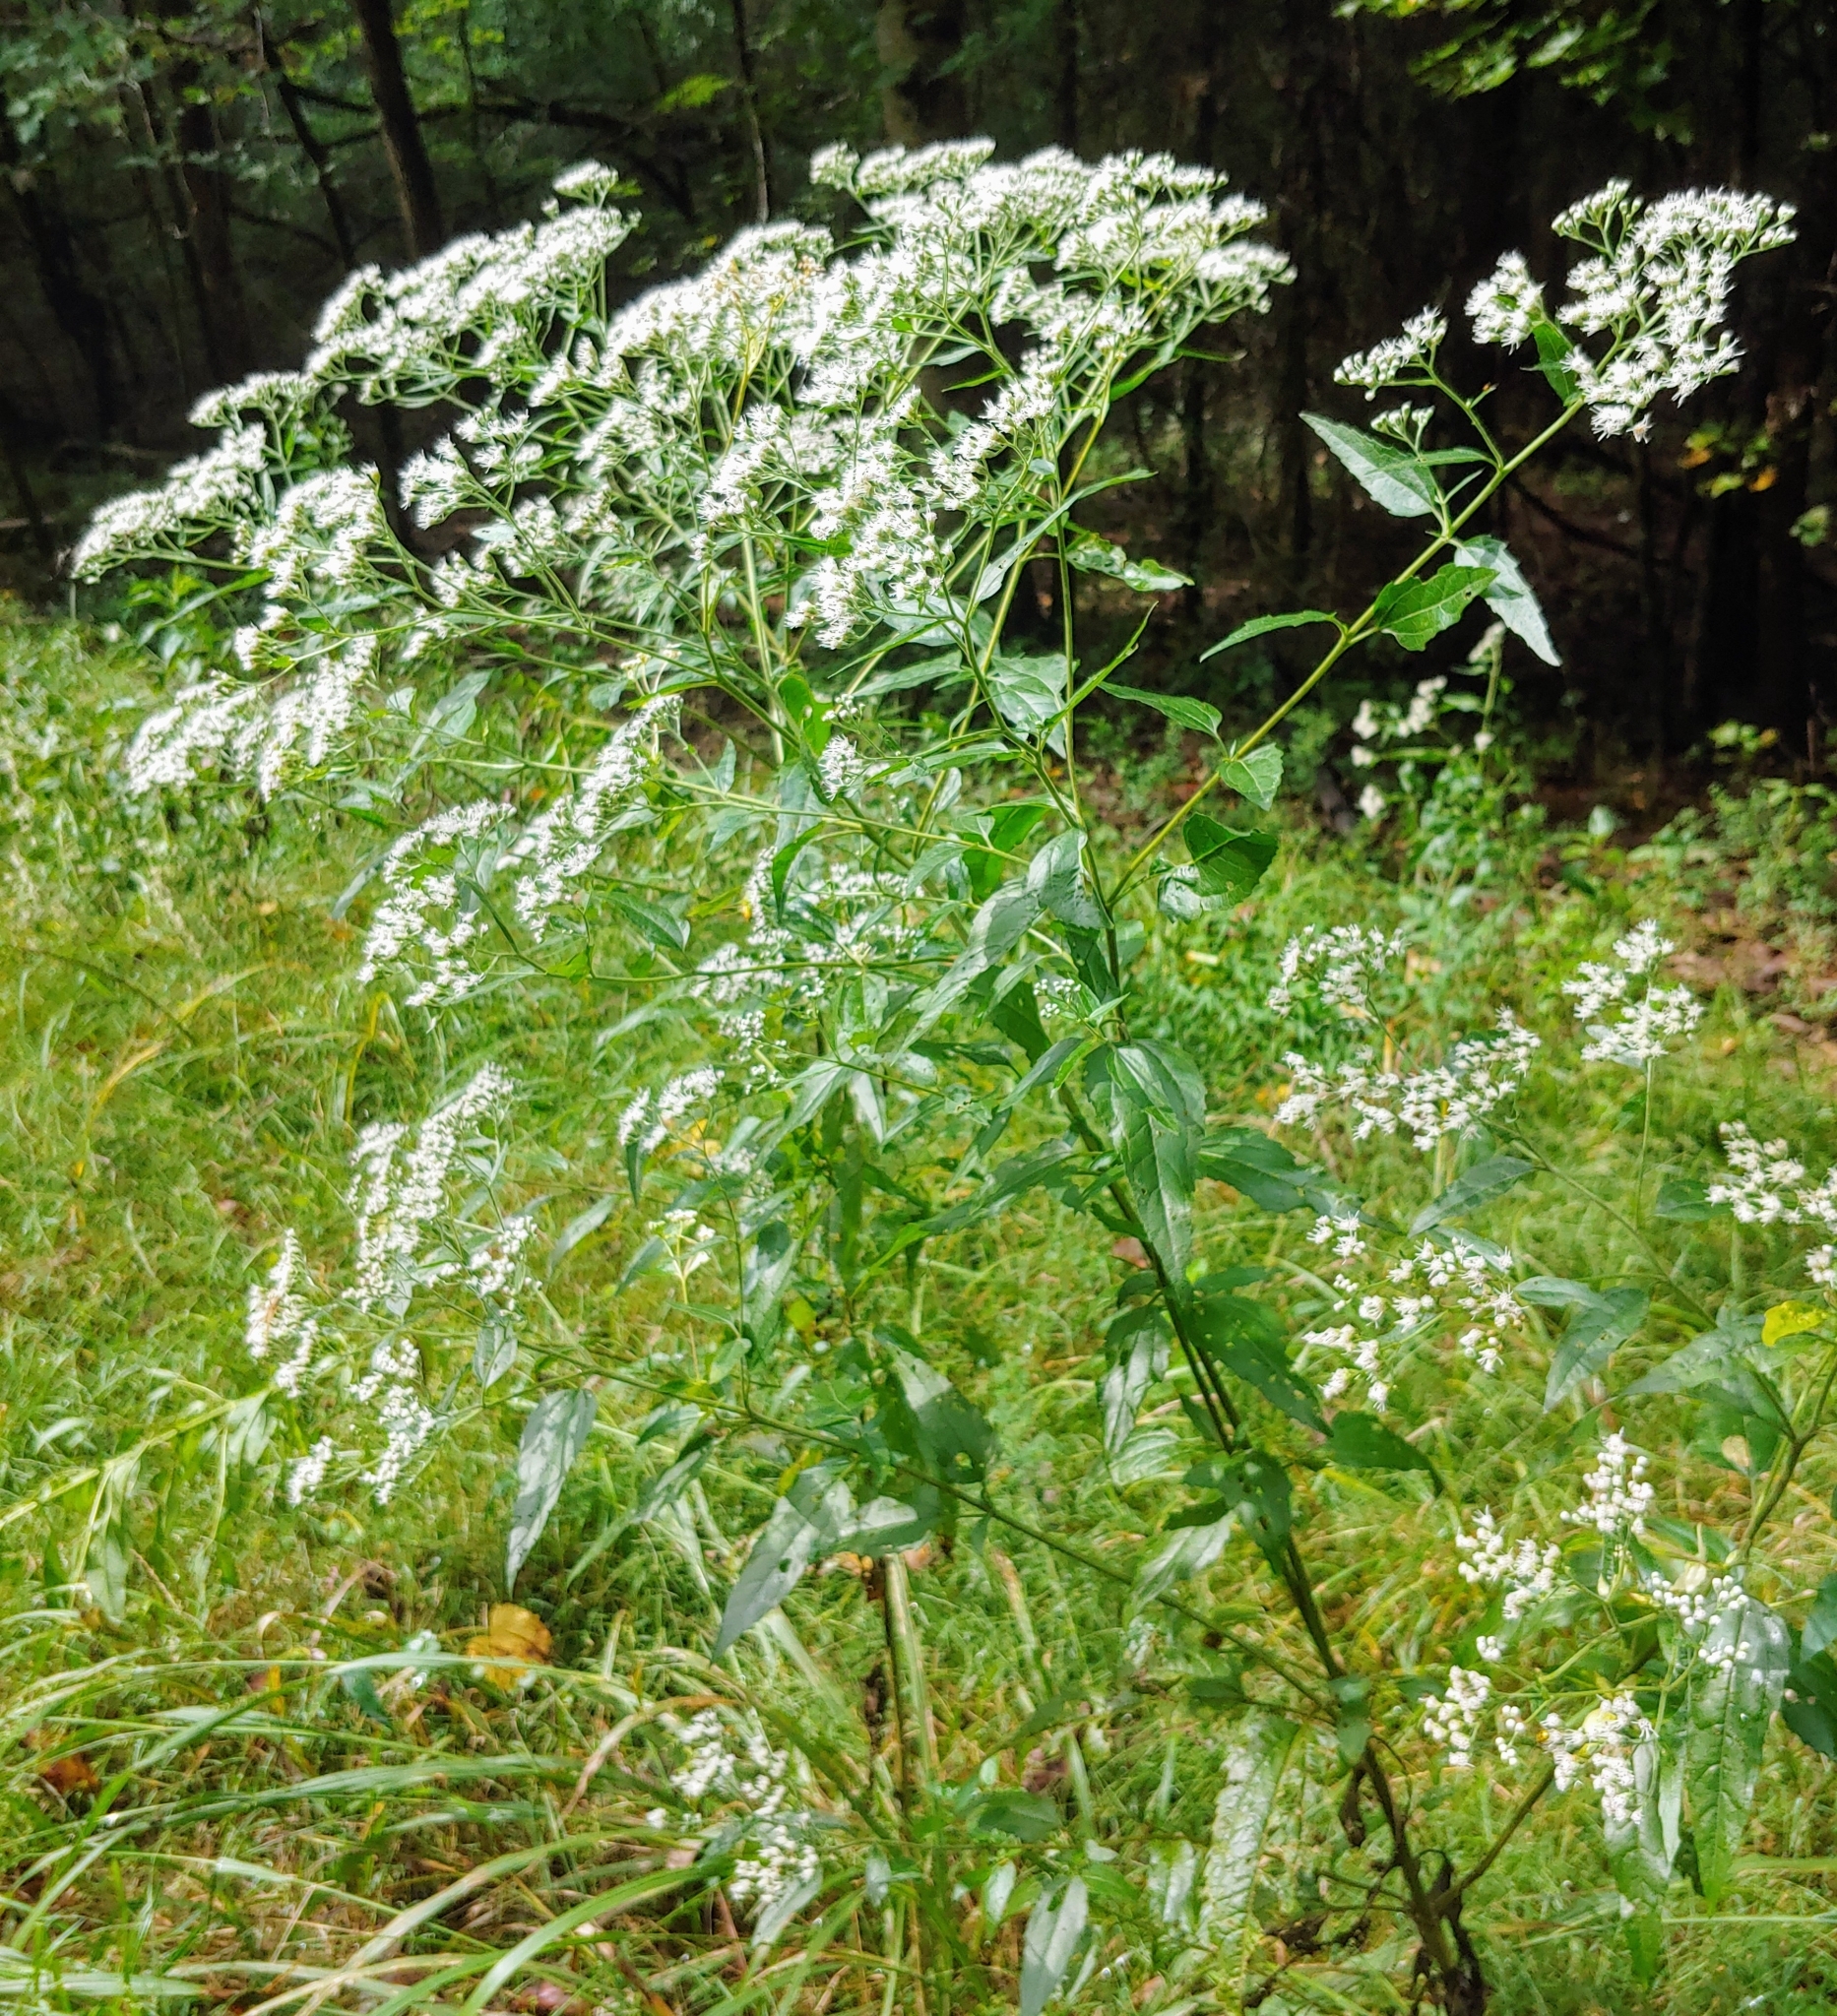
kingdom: Plantae
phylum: Tracheophyta
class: Magnoliopsida
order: Asterales
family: Asteraceae
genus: Eupatorium
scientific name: Eupatorium serotinum
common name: Late boneset
